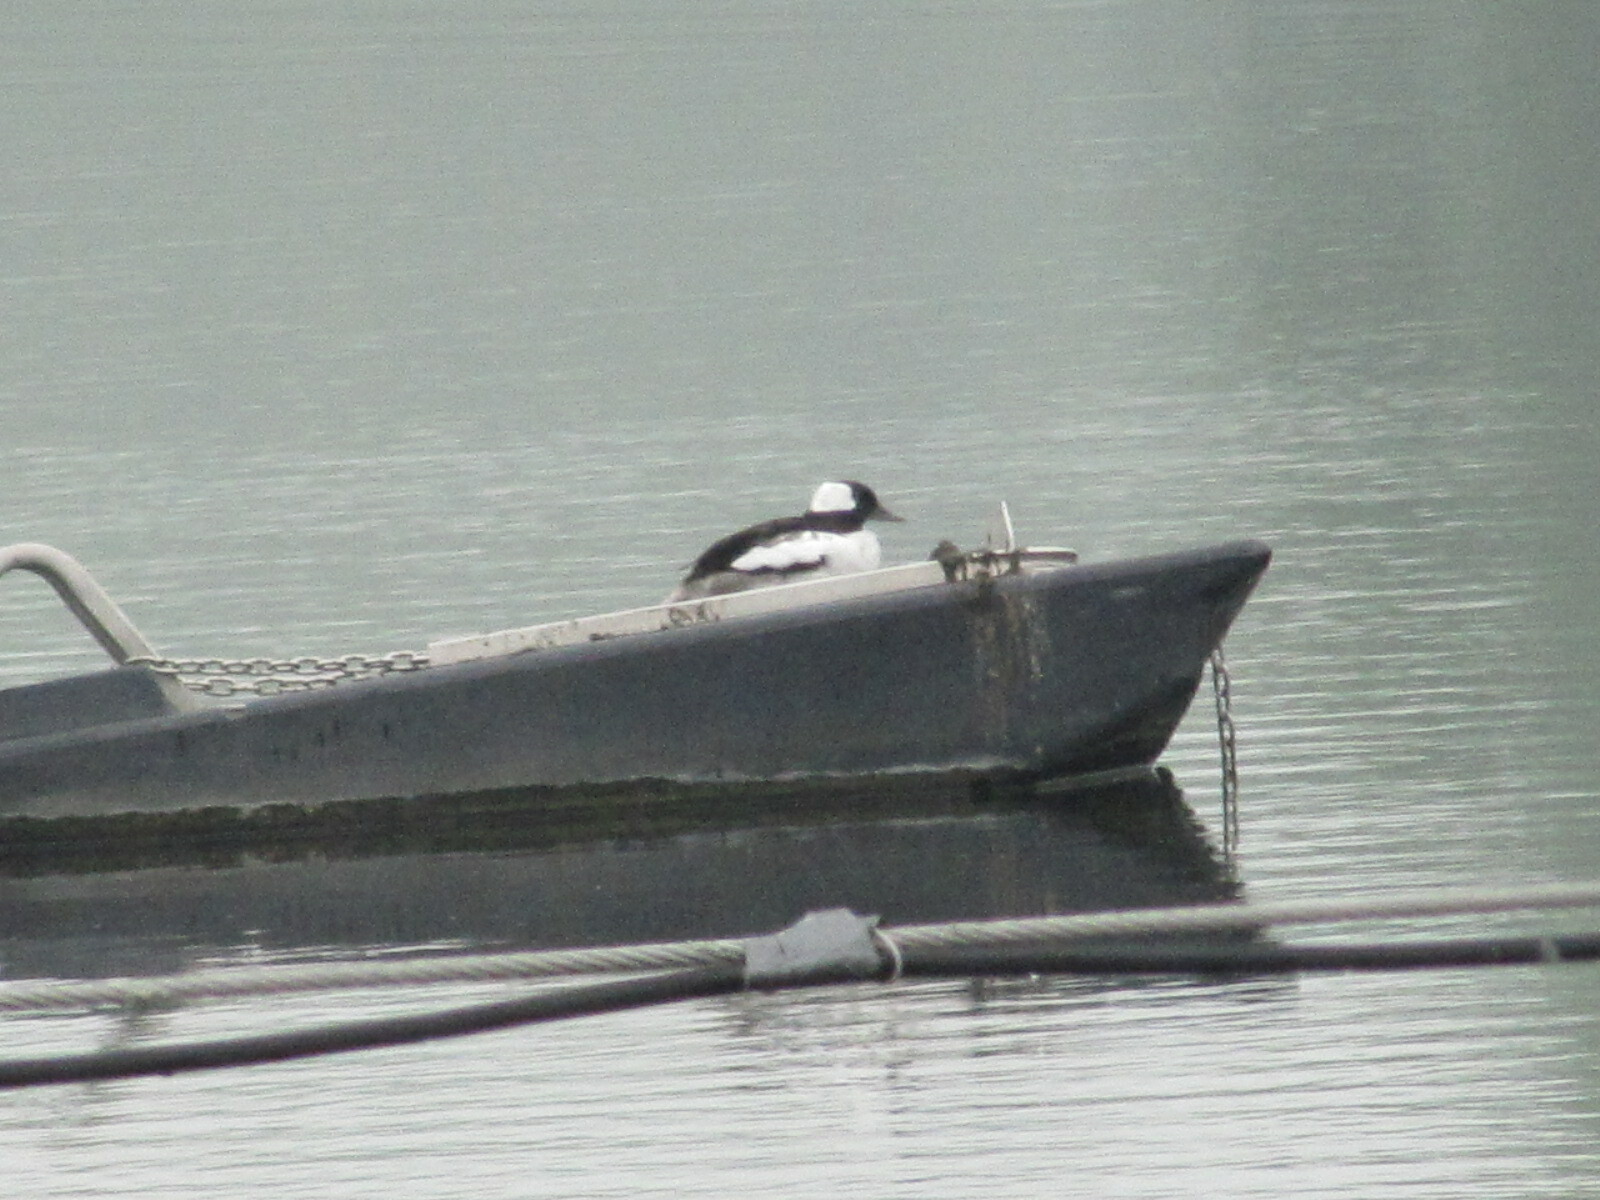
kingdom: Animalia
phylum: Chordata
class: Aves
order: Anseriformes
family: Anatidae
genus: Bucephala
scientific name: Bucephala albeola
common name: Bufflehead
